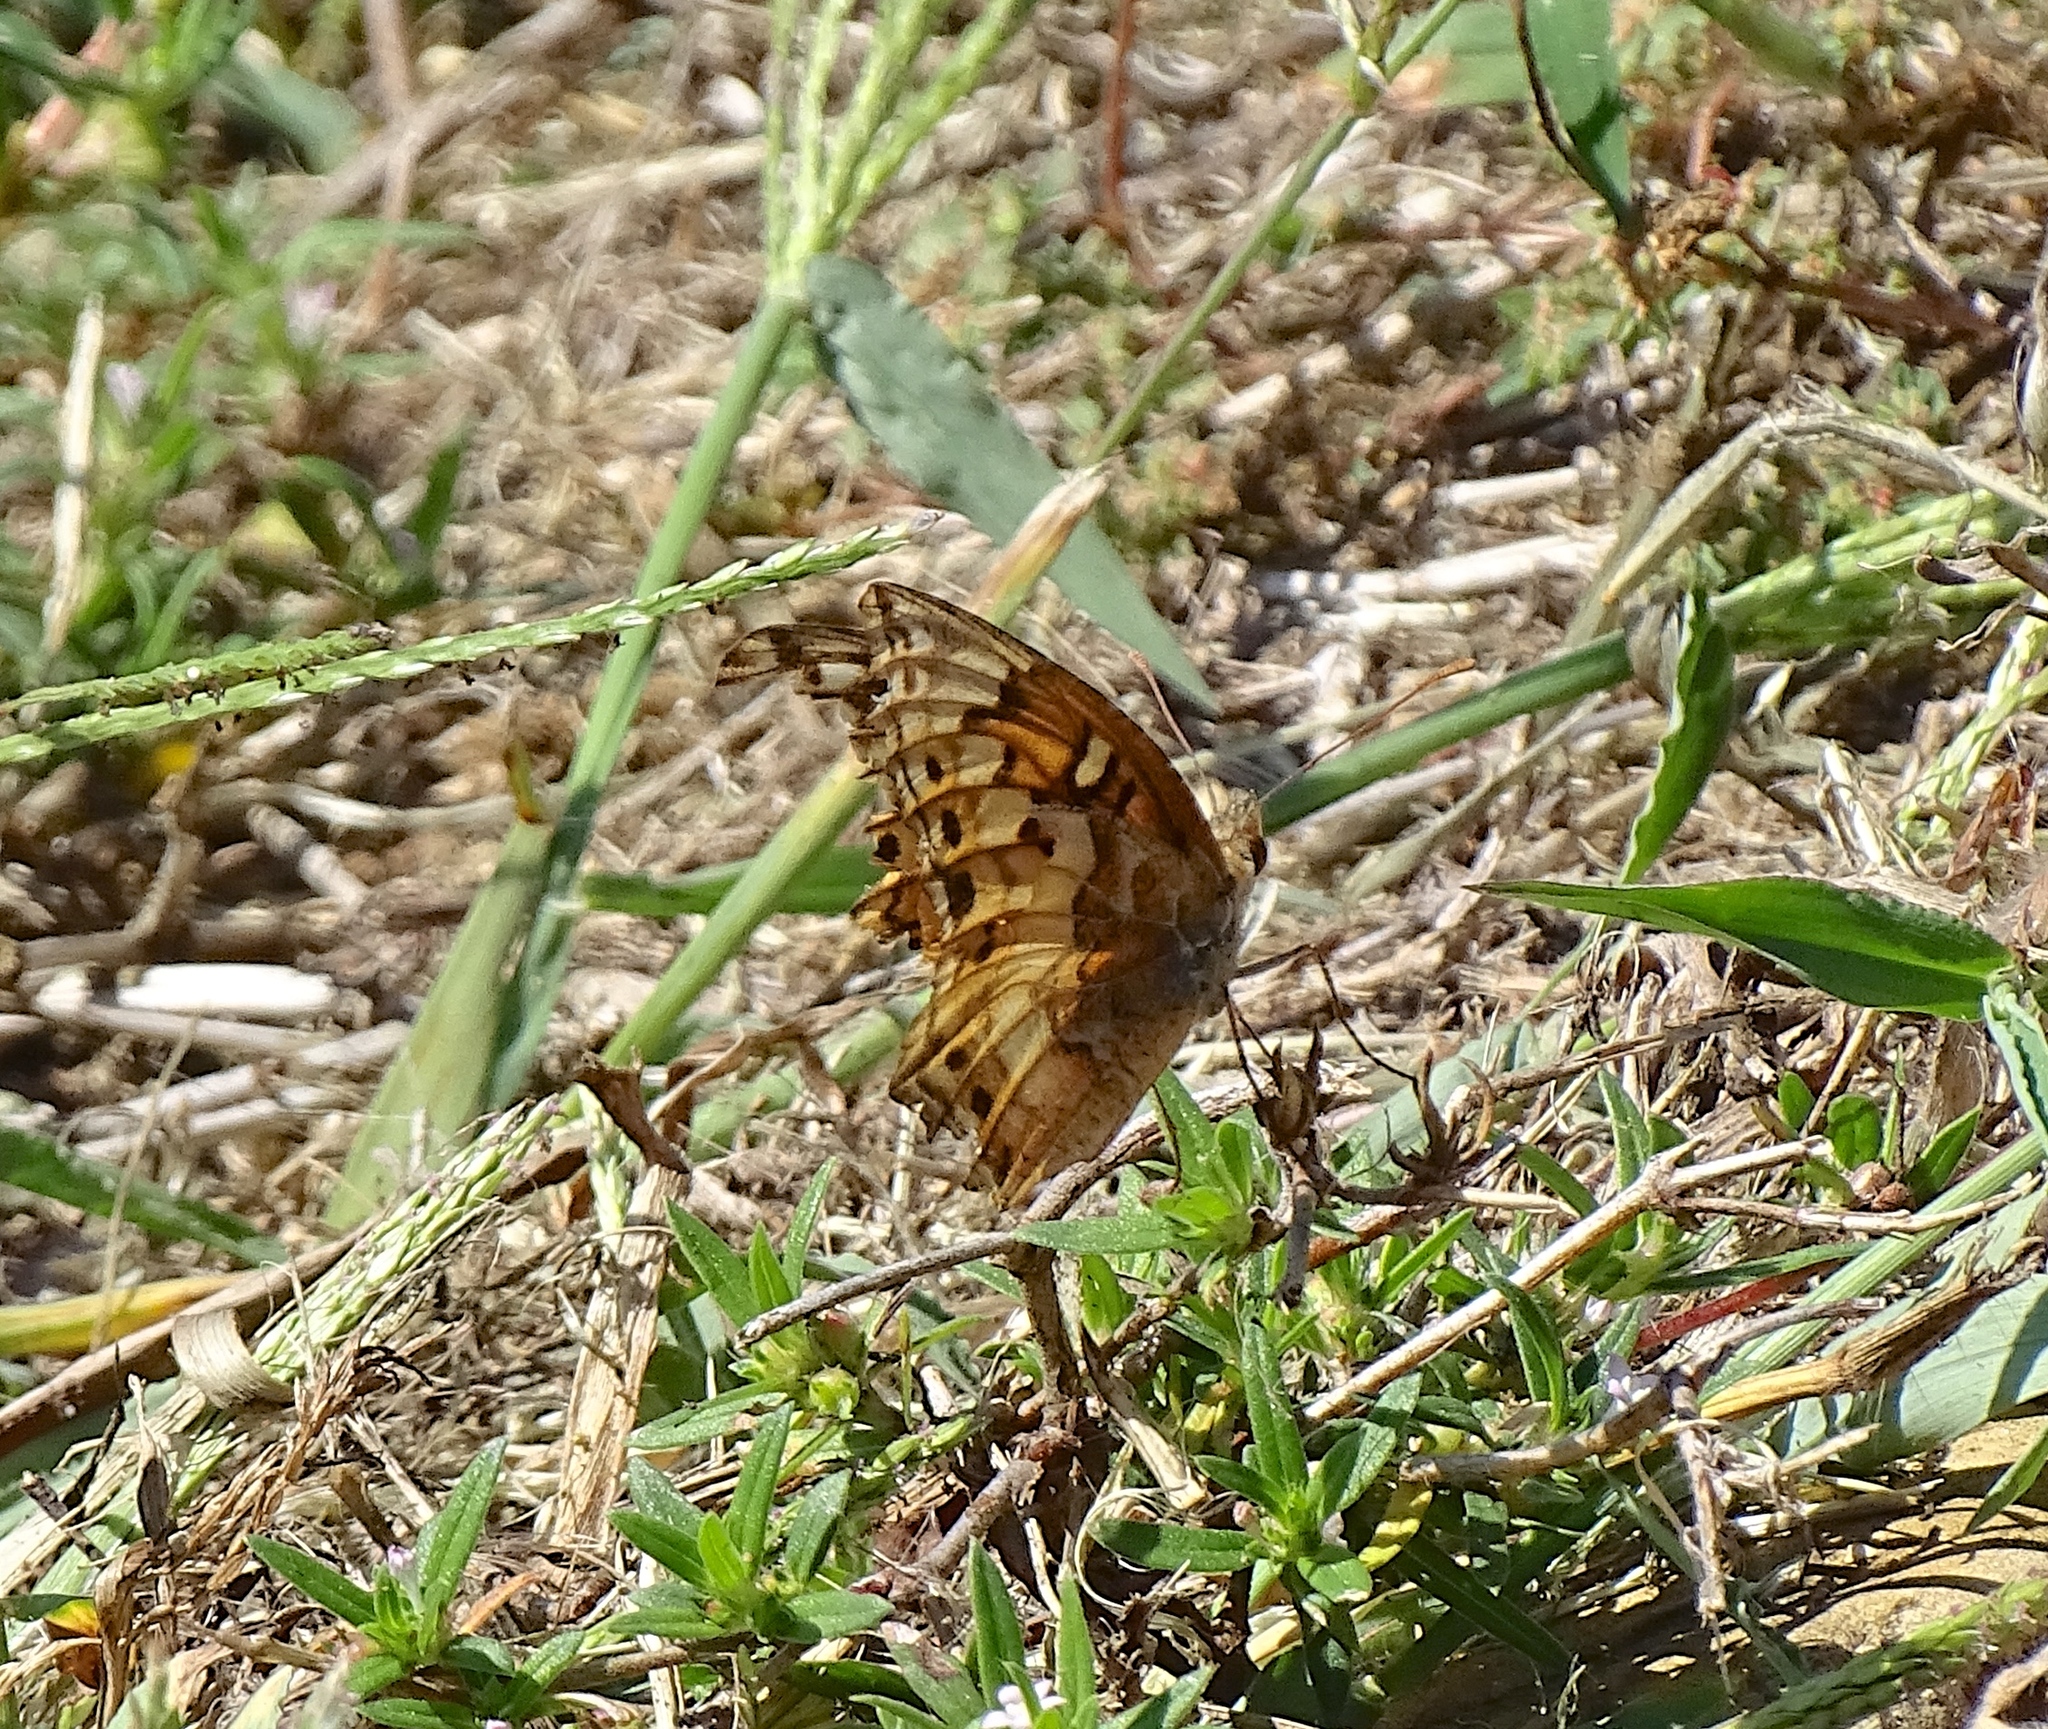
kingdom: Animalia
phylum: Arthropoda
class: Insecta
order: Lepidoptera
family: Nymphalidae
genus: Euptoieta
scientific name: Euptoieta claudia
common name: Variegated fritillary
